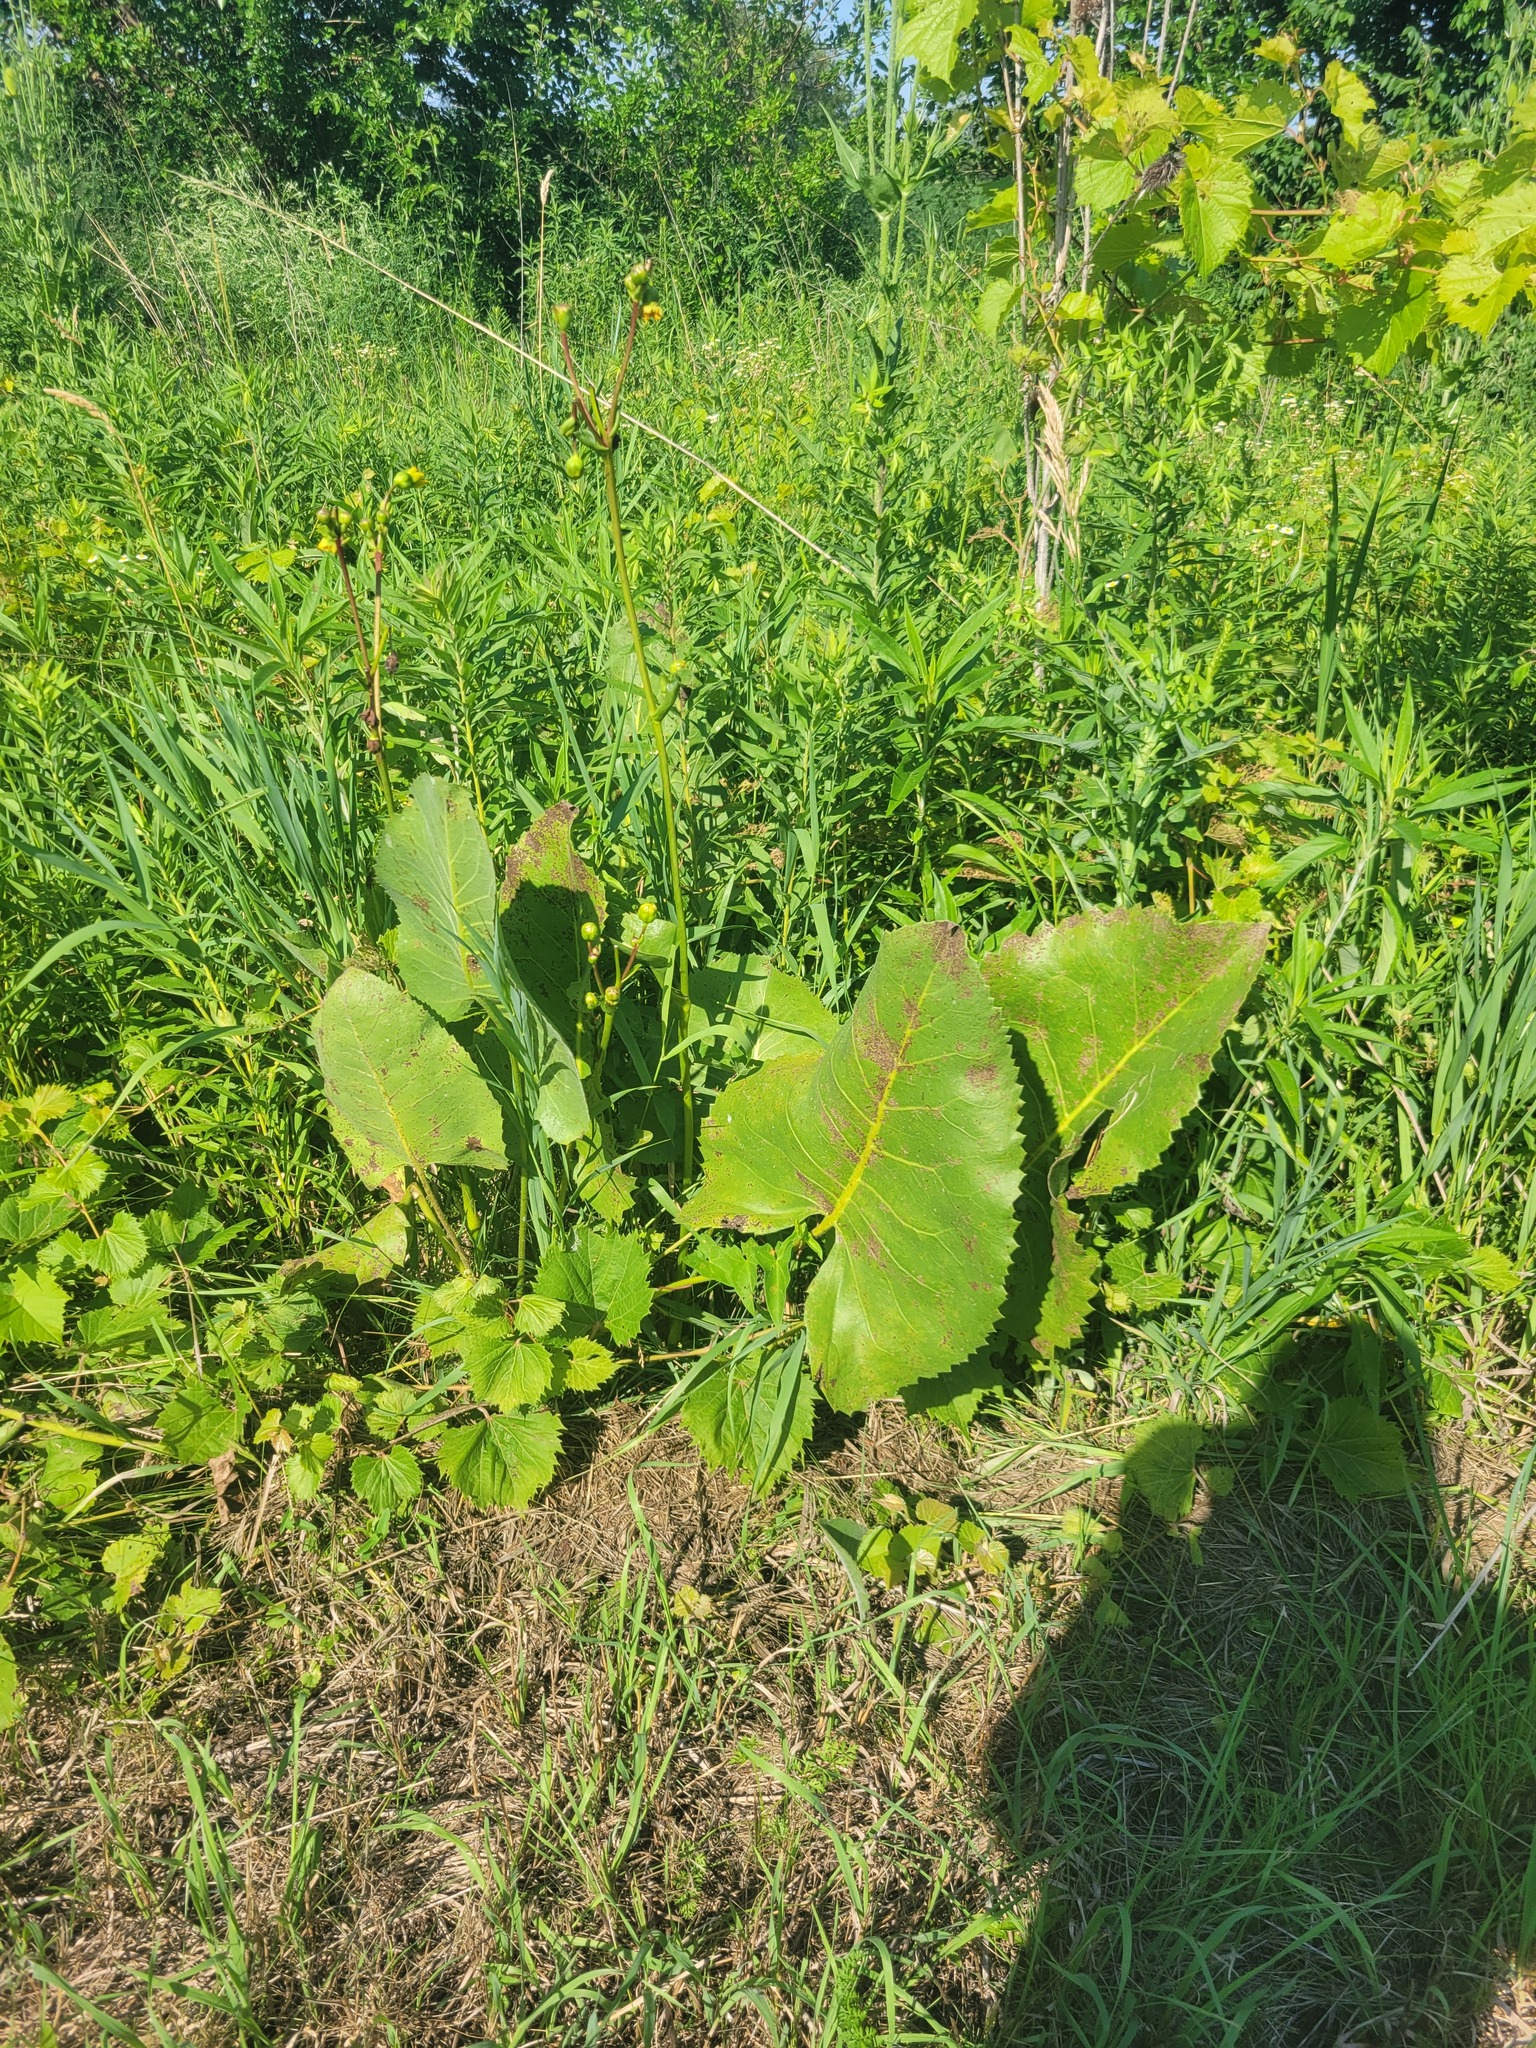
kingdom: Plantae
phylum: Tracheophyta
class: Magnoliopsida
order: Asterales
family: Asteraceae
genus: Silphium
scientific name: Silphium terebinthinaceum
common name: Basal-leaf rosinweed
